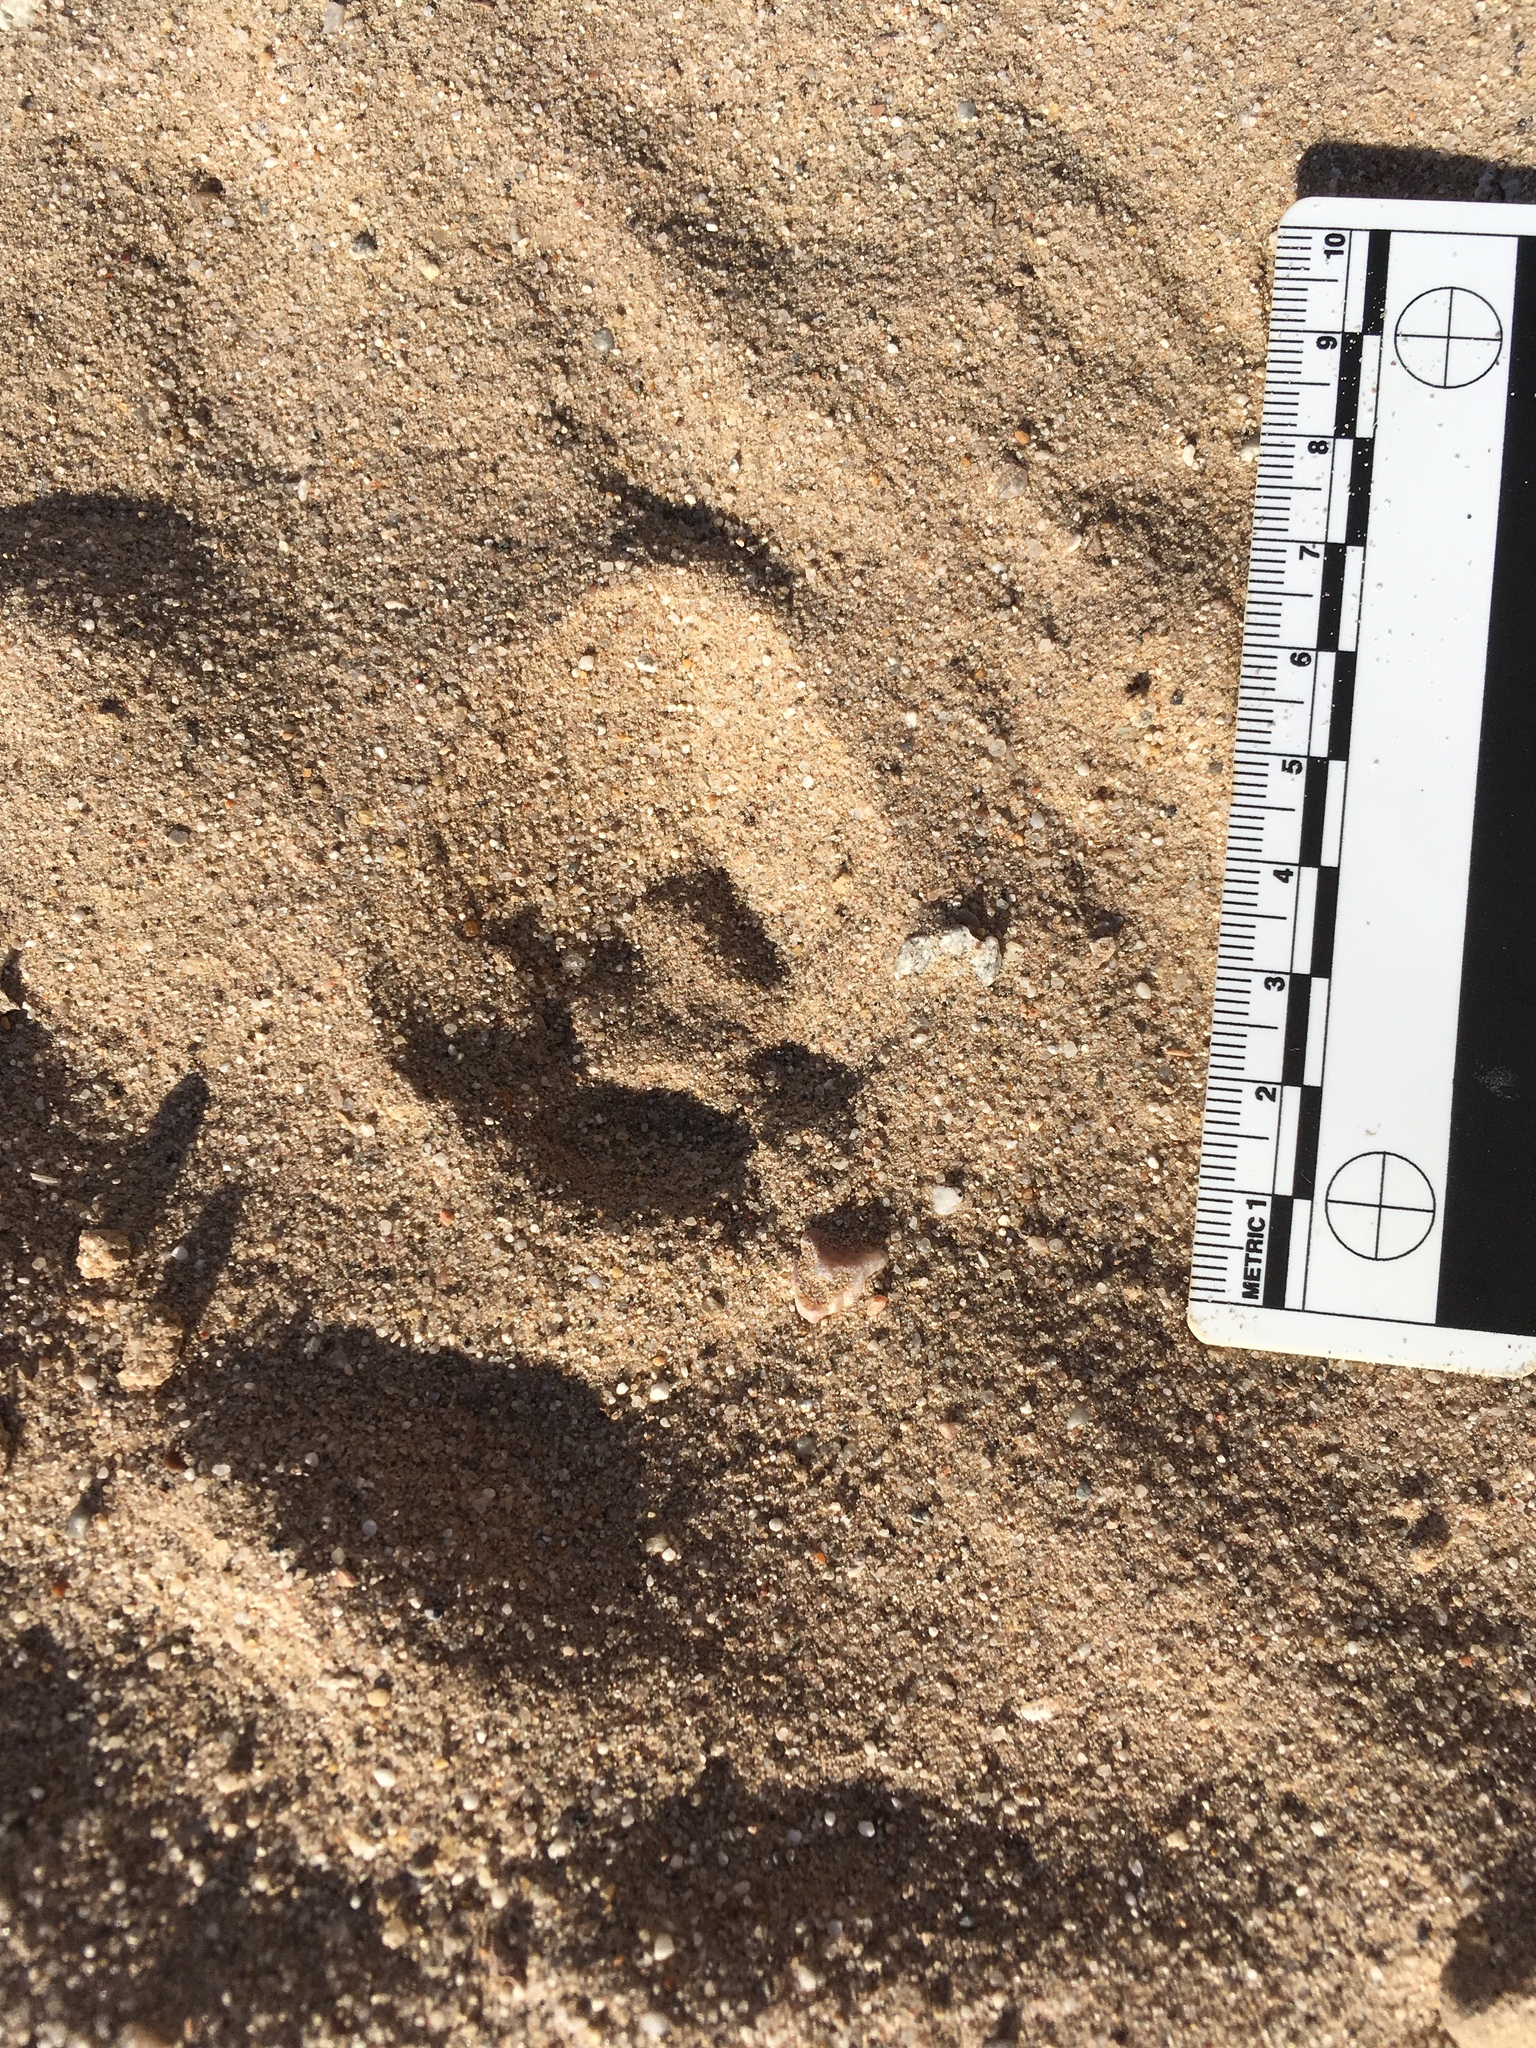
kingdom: Animalia
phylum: Chordata
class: Mammalia
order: Carnivora
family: Canidae
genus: Vulpes
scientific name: Vulpes macrotis
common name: Kit fox
